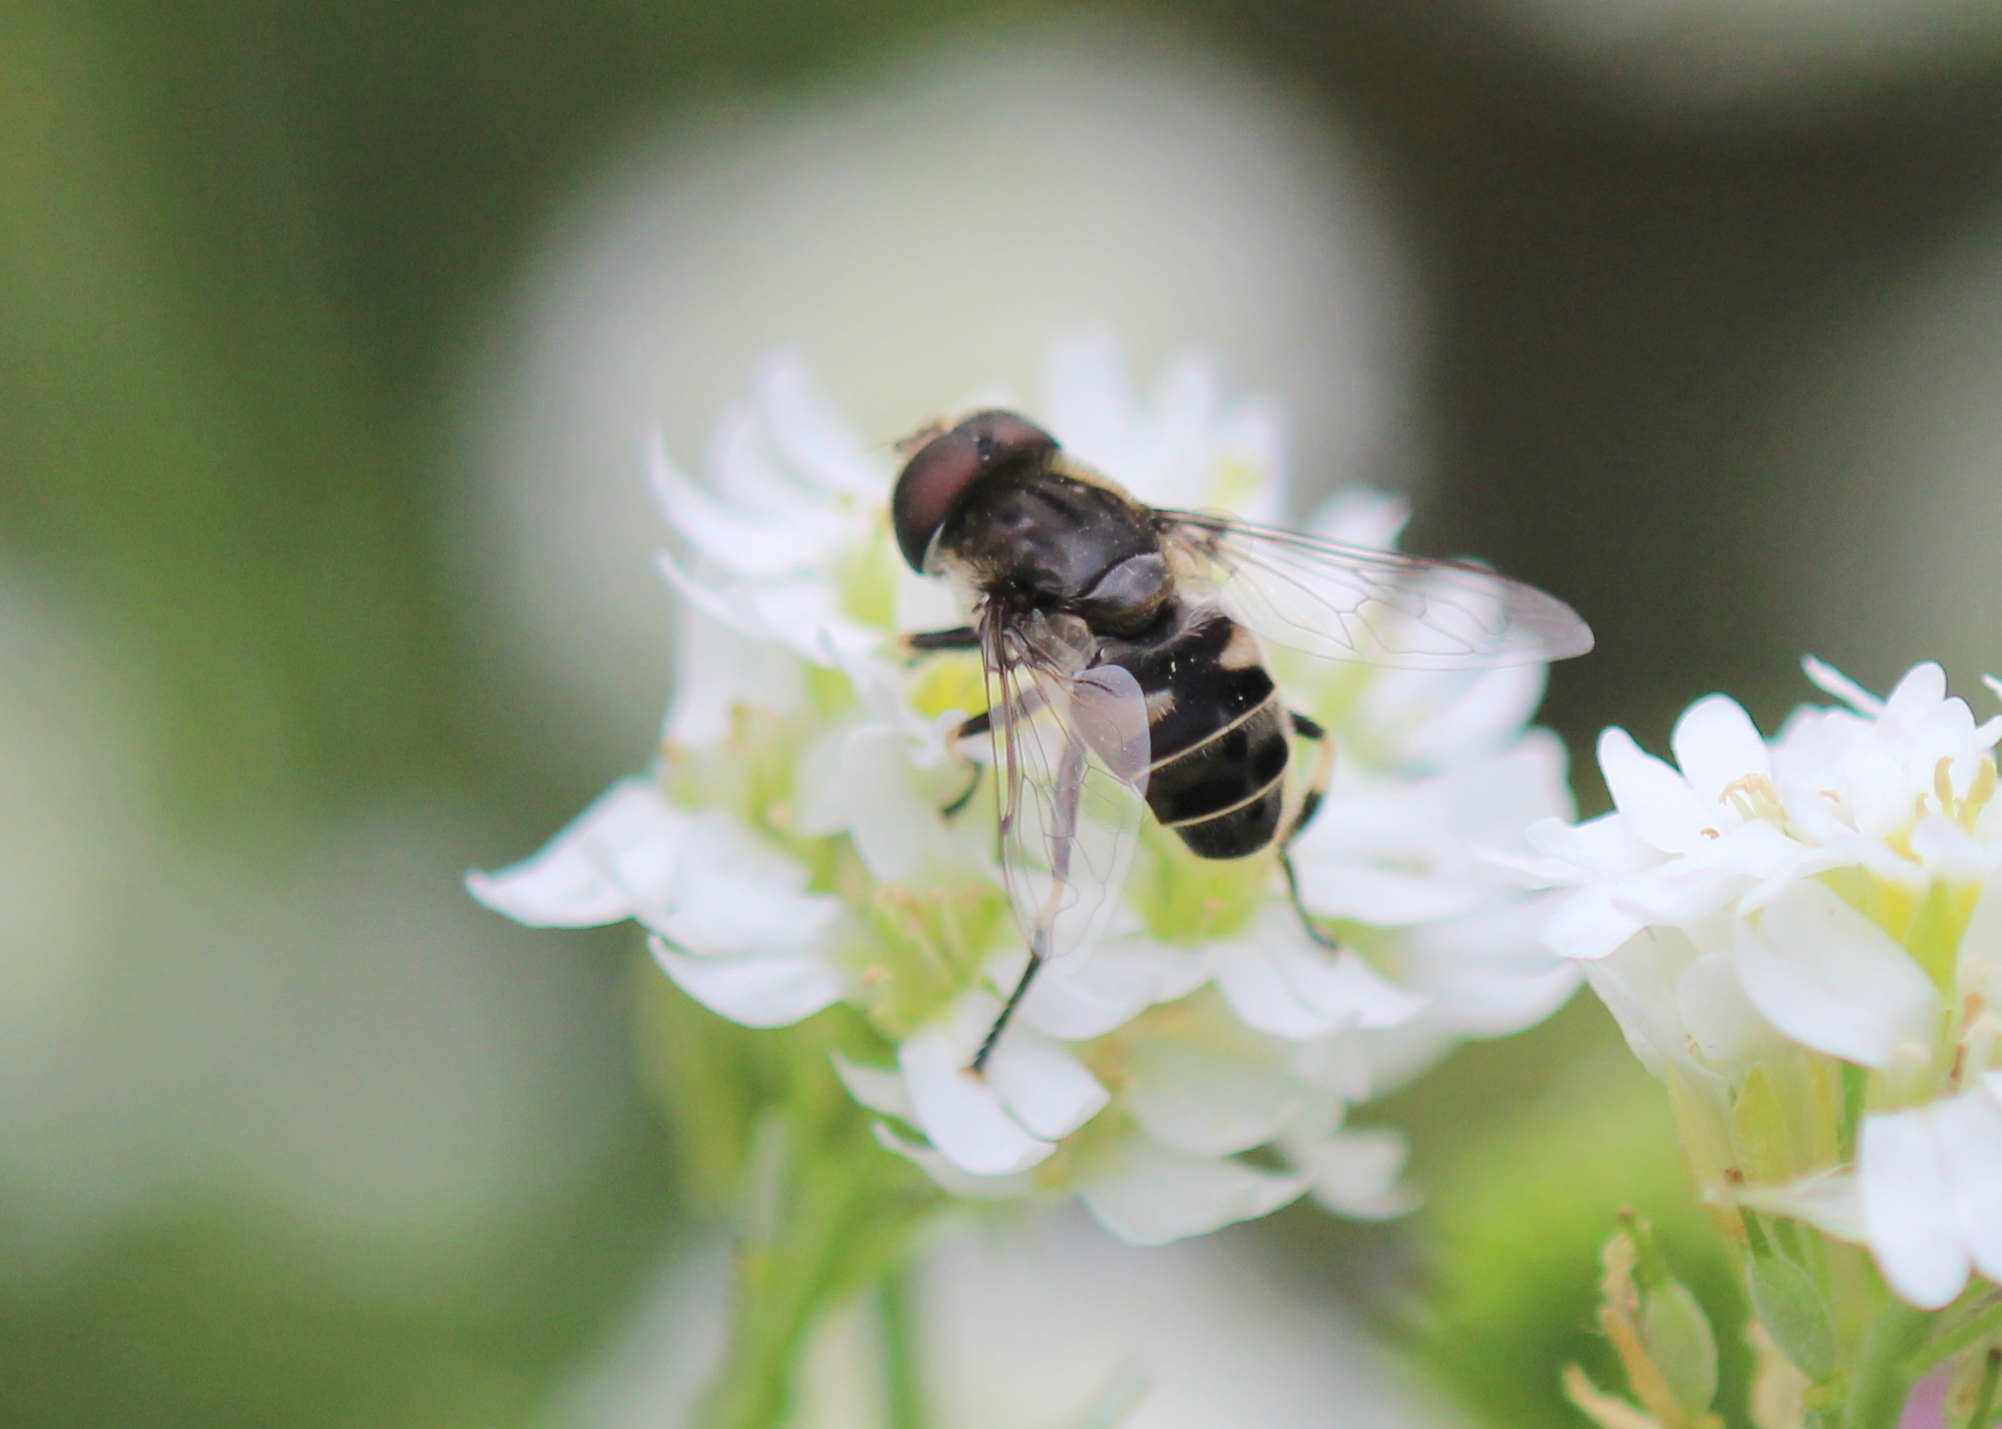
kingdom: Animalia
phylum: Arthropoda
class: Insecta
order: Diptera
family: Syrphidae
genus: Eristalis
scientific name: Eristalis dimidiata
